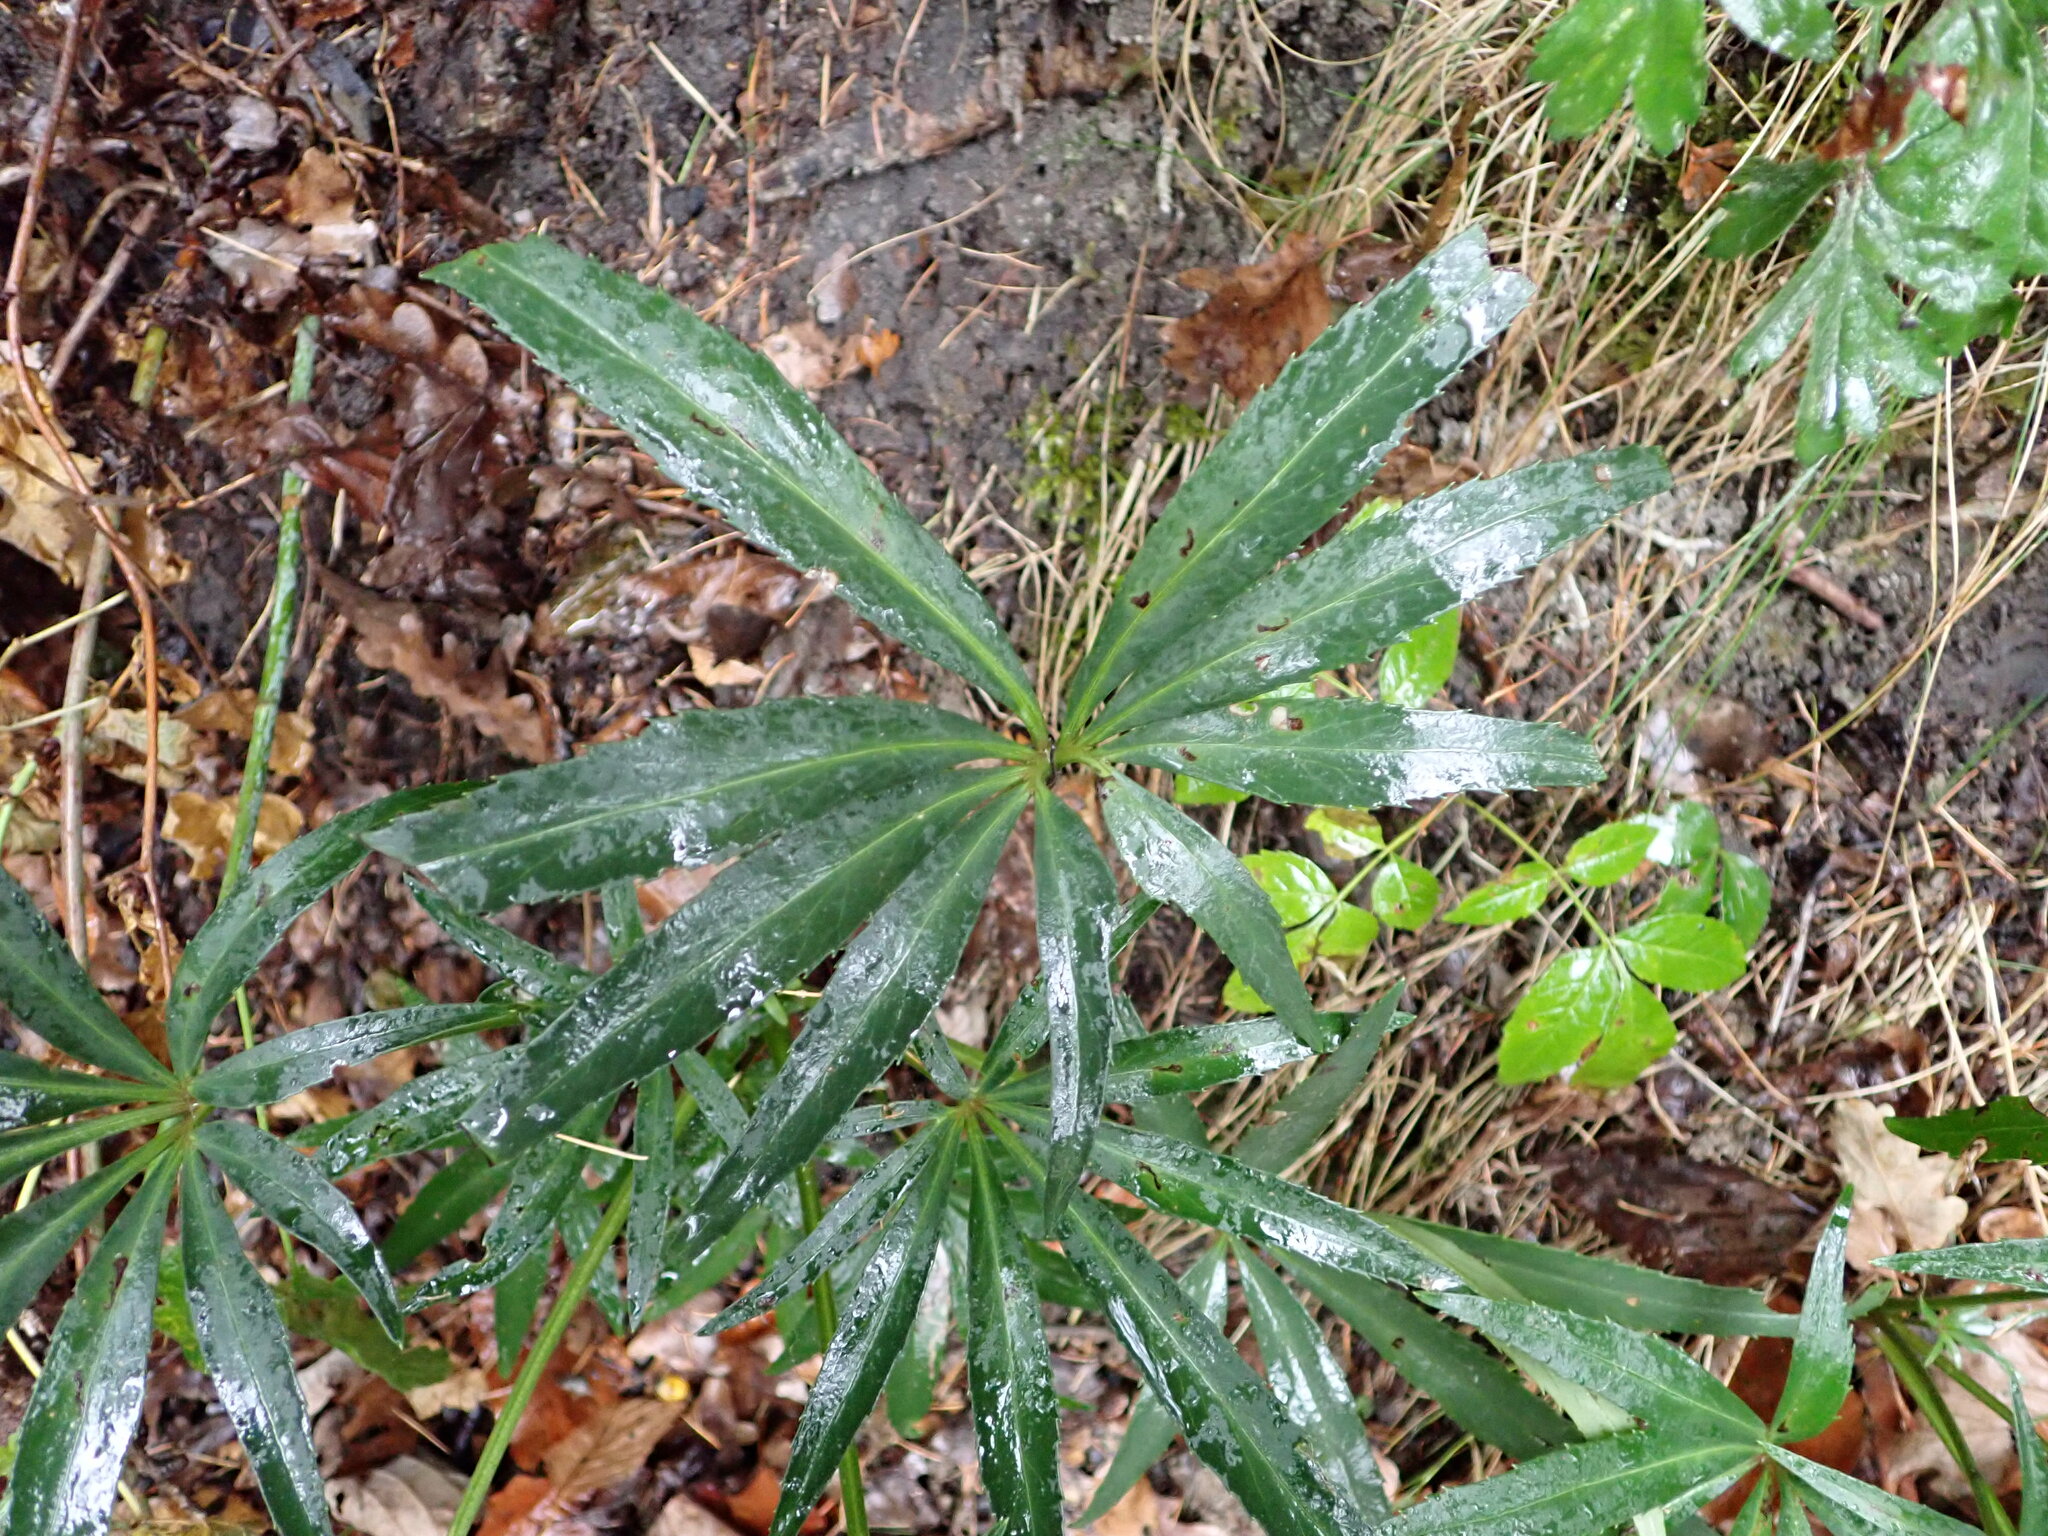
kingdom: Plantae
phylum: Tracheophyta
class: Magnoliopsida
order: Ranunculales
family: Ranunculaceae
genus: Helleborus
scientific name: Helleborus foetidus
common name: Stinking hellebore
